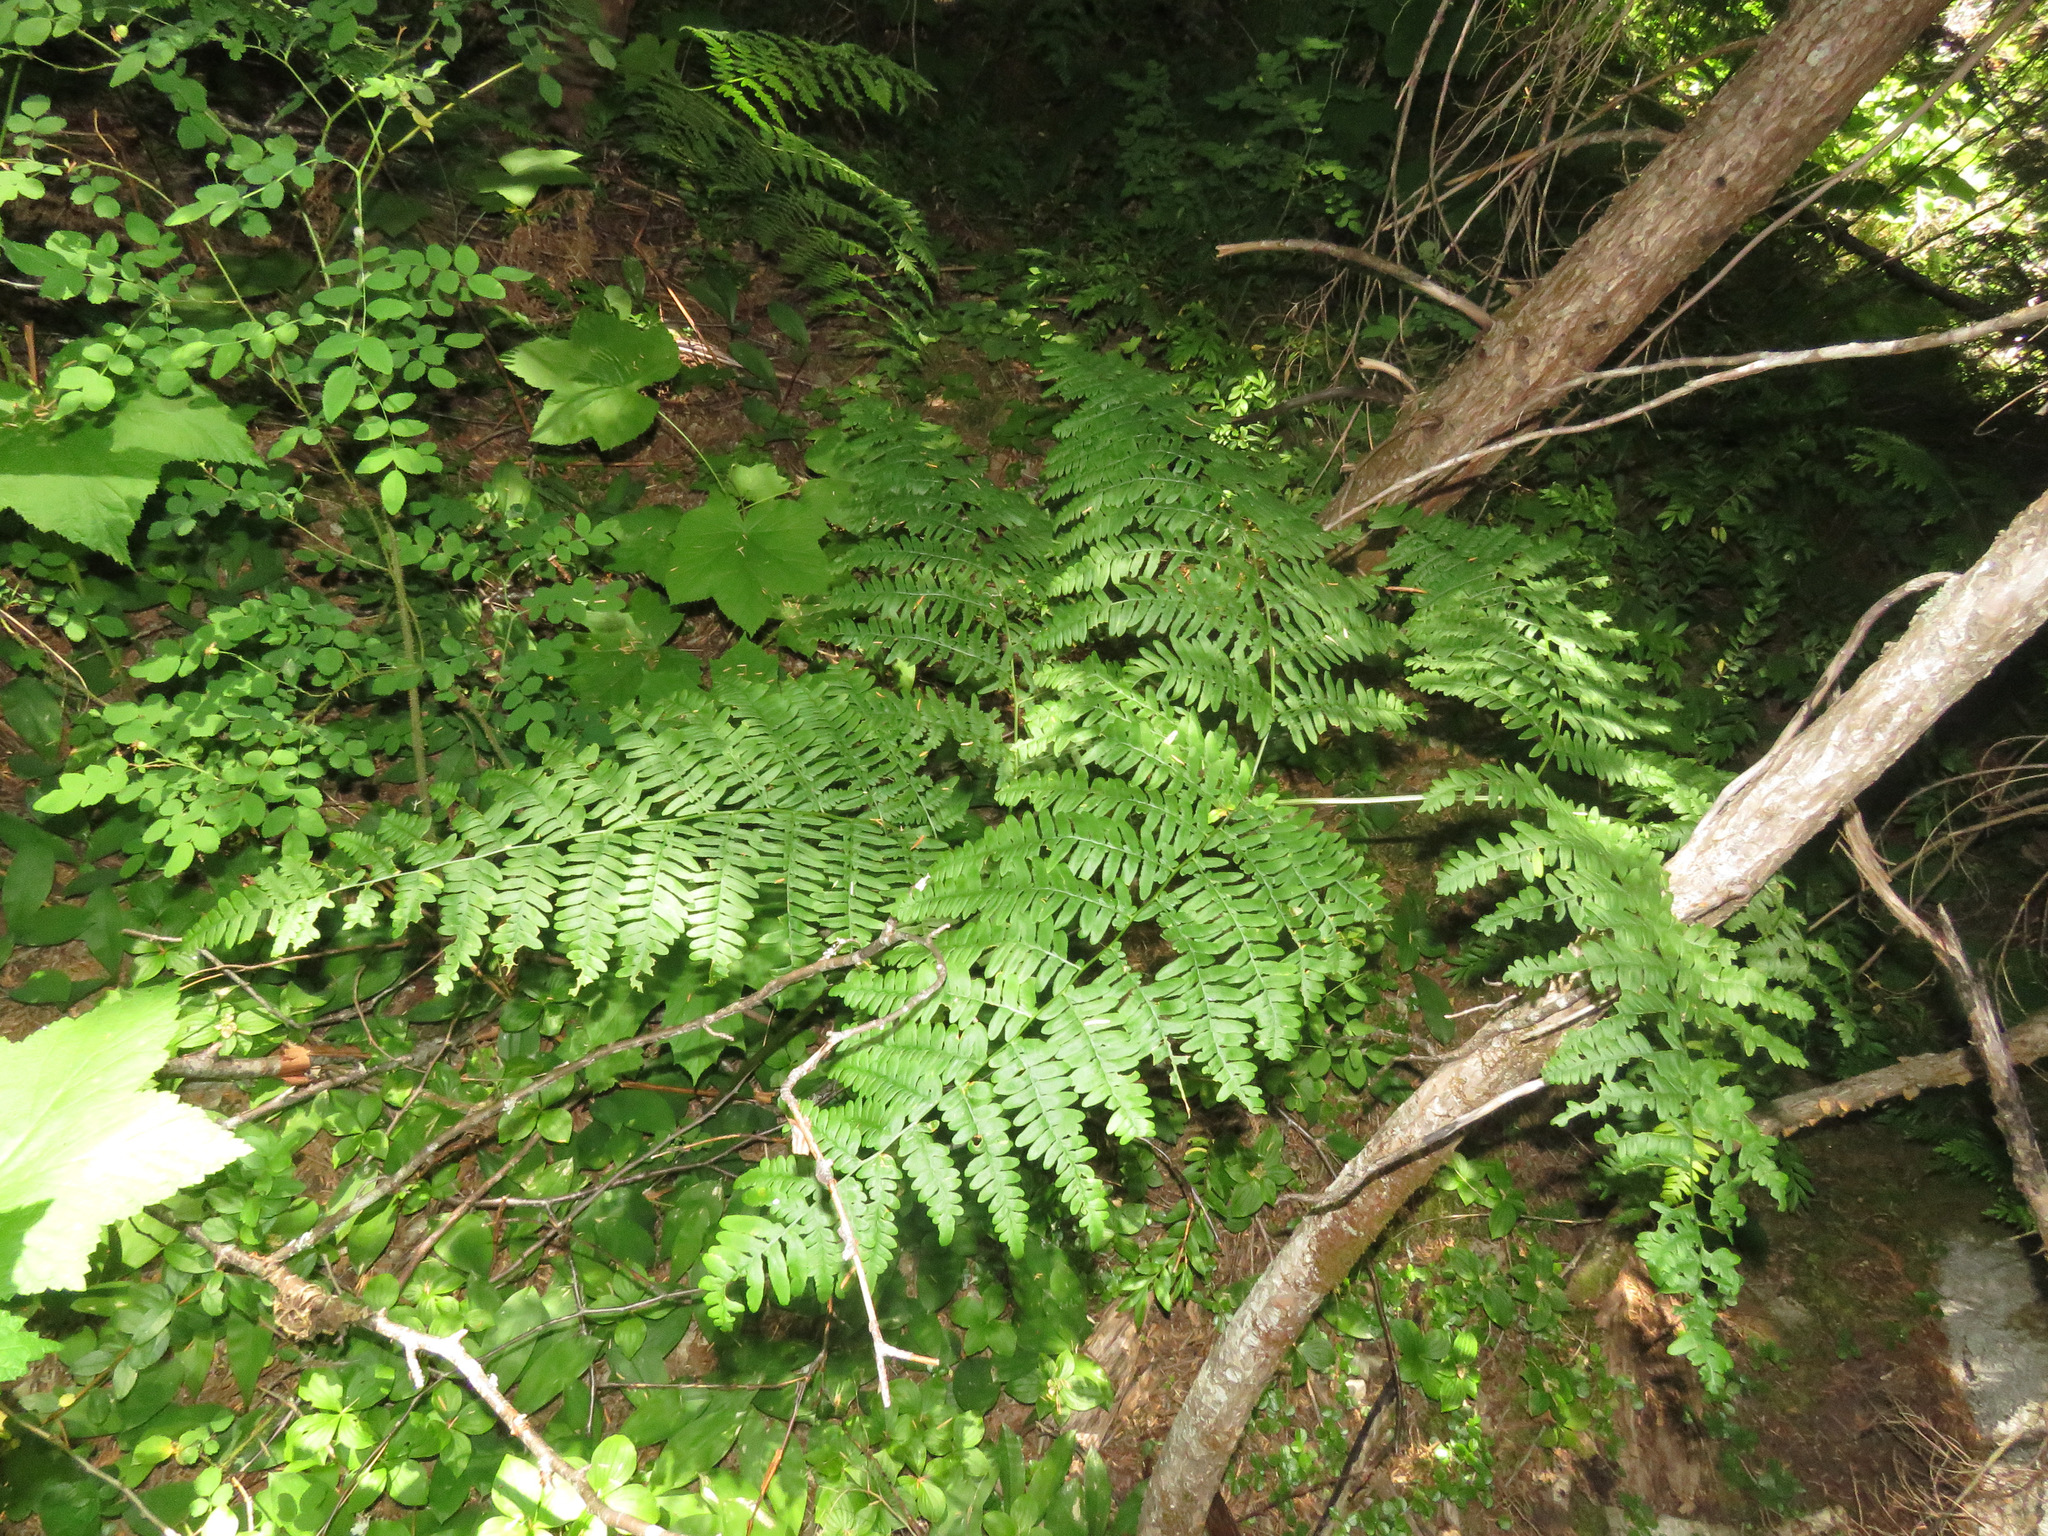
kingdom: Plantae
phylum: Tracheophyta
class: Polypodiopsida
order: Polypodiales
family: Dennstaedtiaceae
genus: Pteridium
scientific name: Pteridium aquilinum
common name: Bracken
